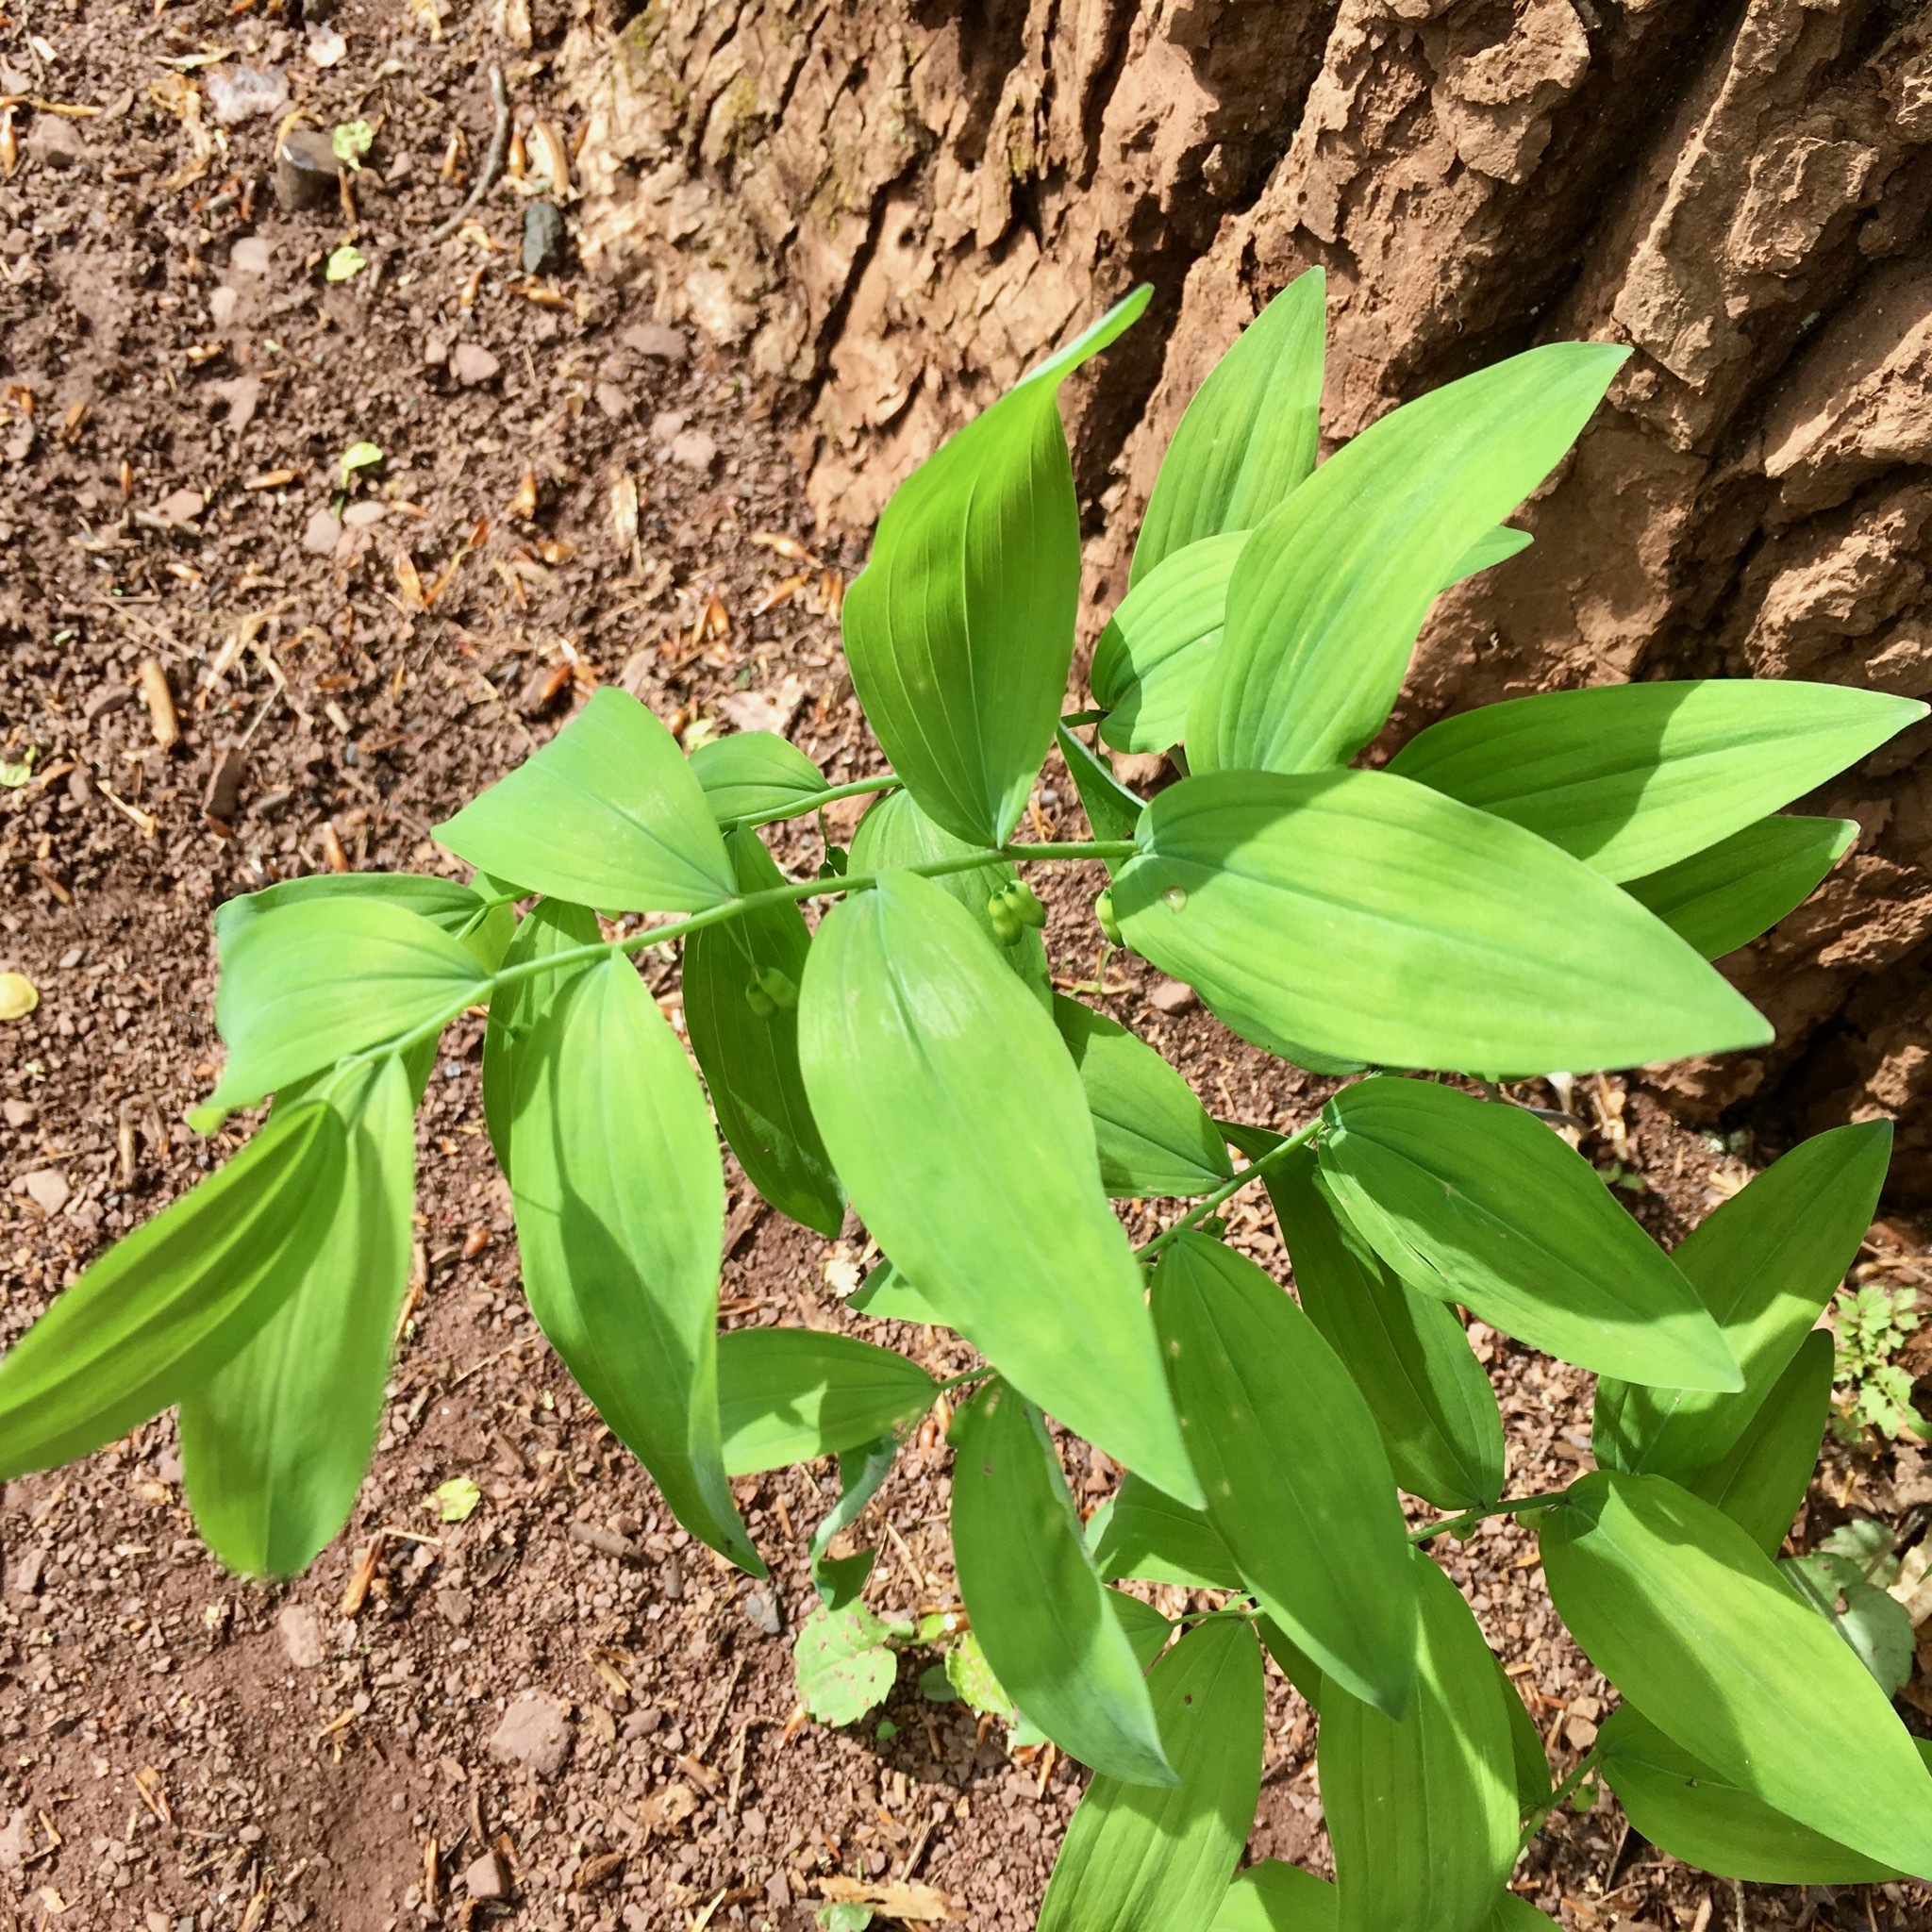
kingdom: Plantae
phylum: Tracheophyta
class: Liliopsida
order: Asparagales
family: Asparagaceae
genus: Polygonatum
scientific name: Polygonatum pubescens
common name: Downy solomon's seal
